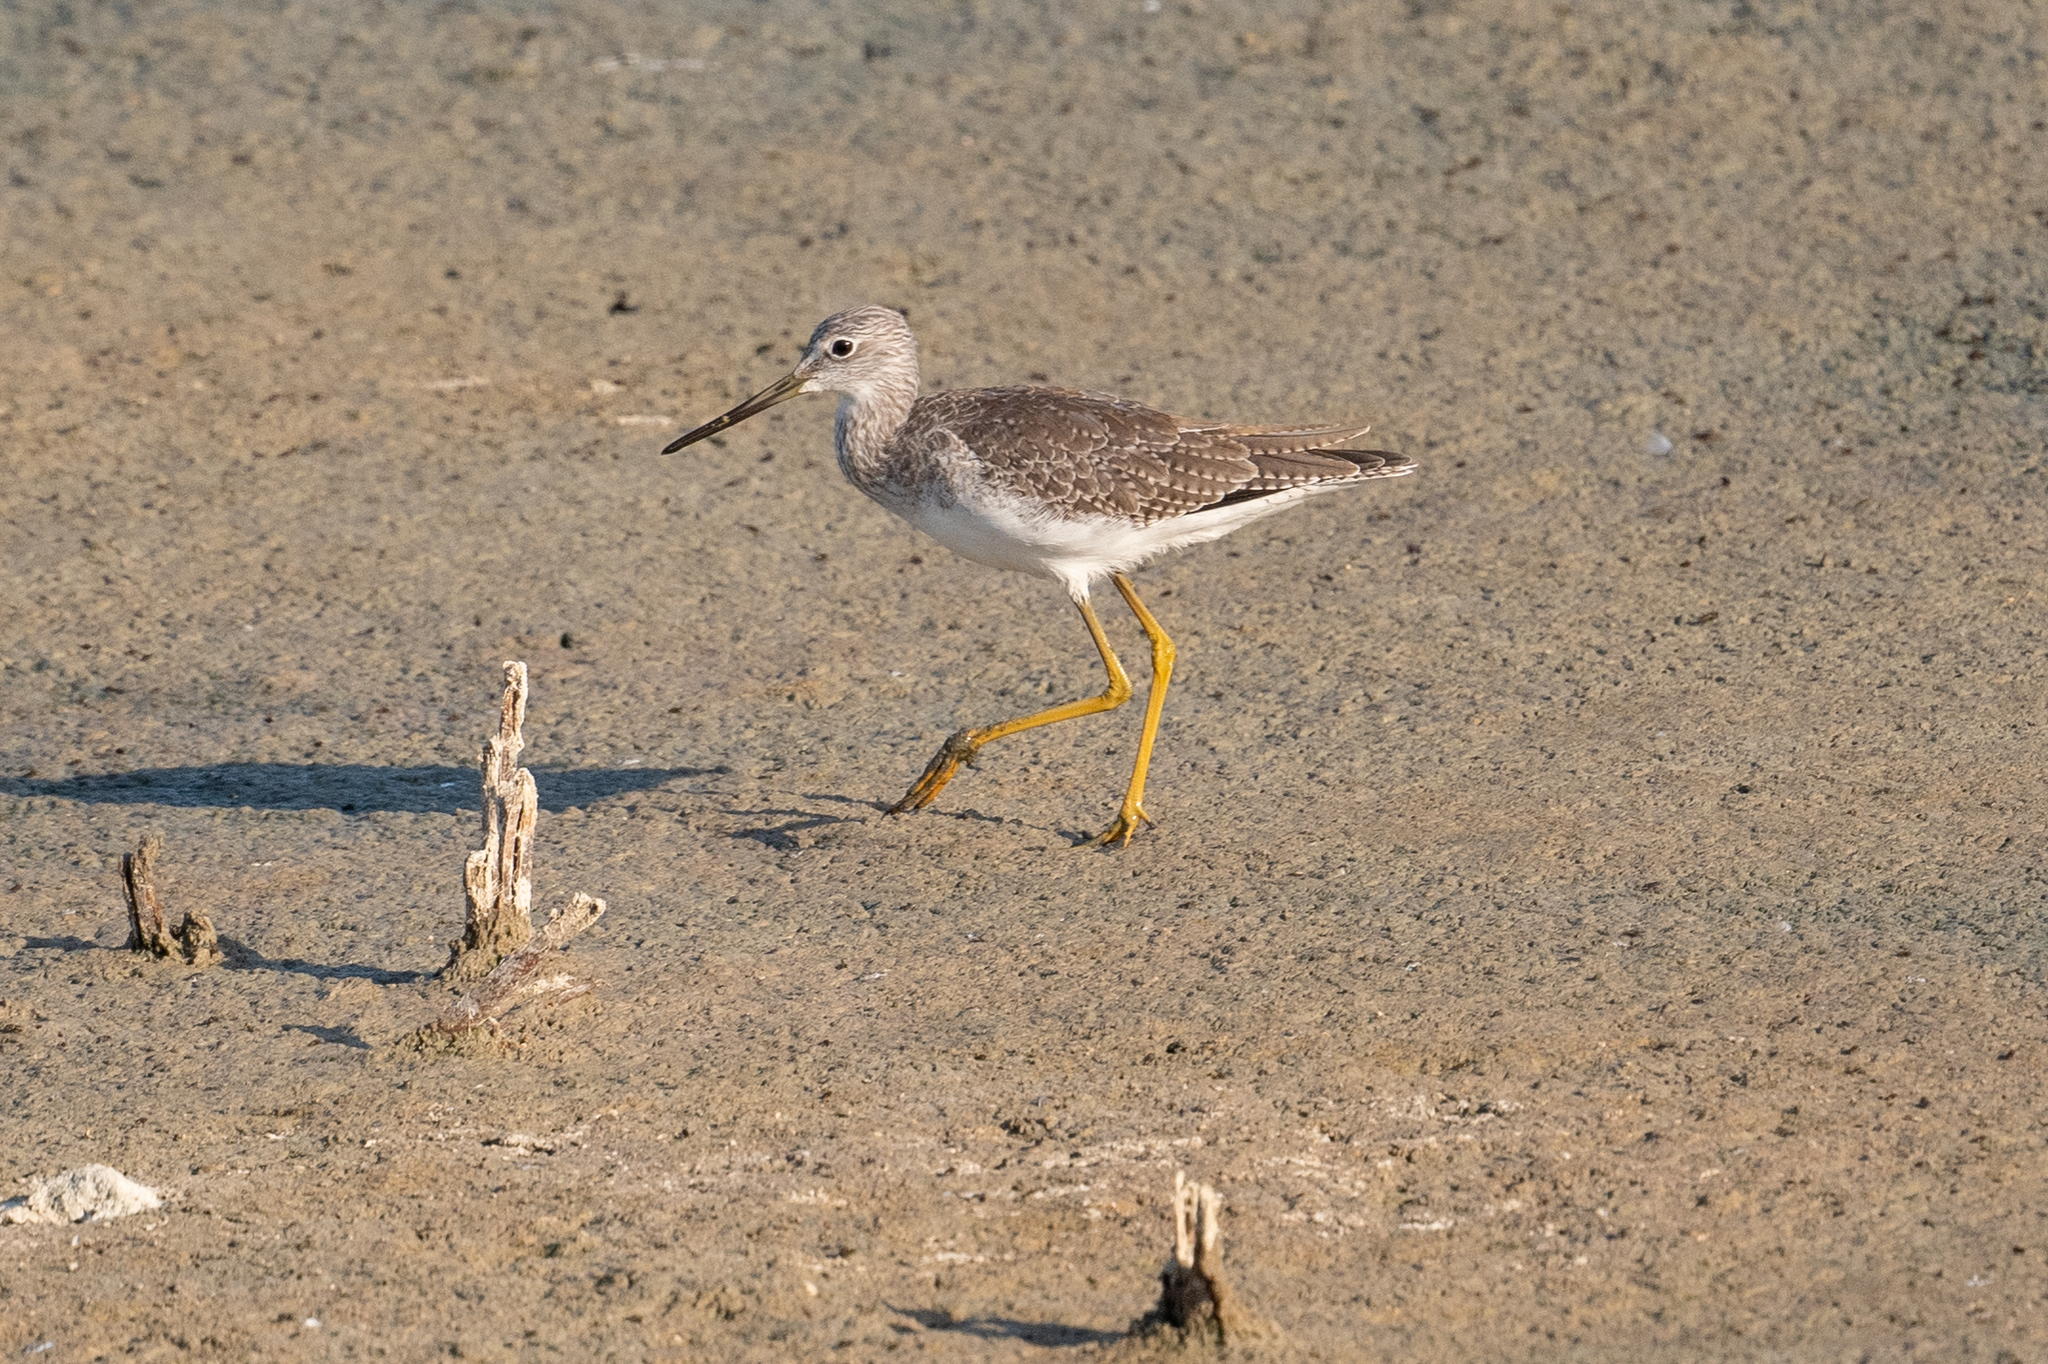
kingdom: Animalia
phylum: Chordata
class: Aves
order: Charadriiformes
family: Scolopacidae
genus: Tringa
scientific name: Tringa melanoleuca
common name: Greater yellowlegs
